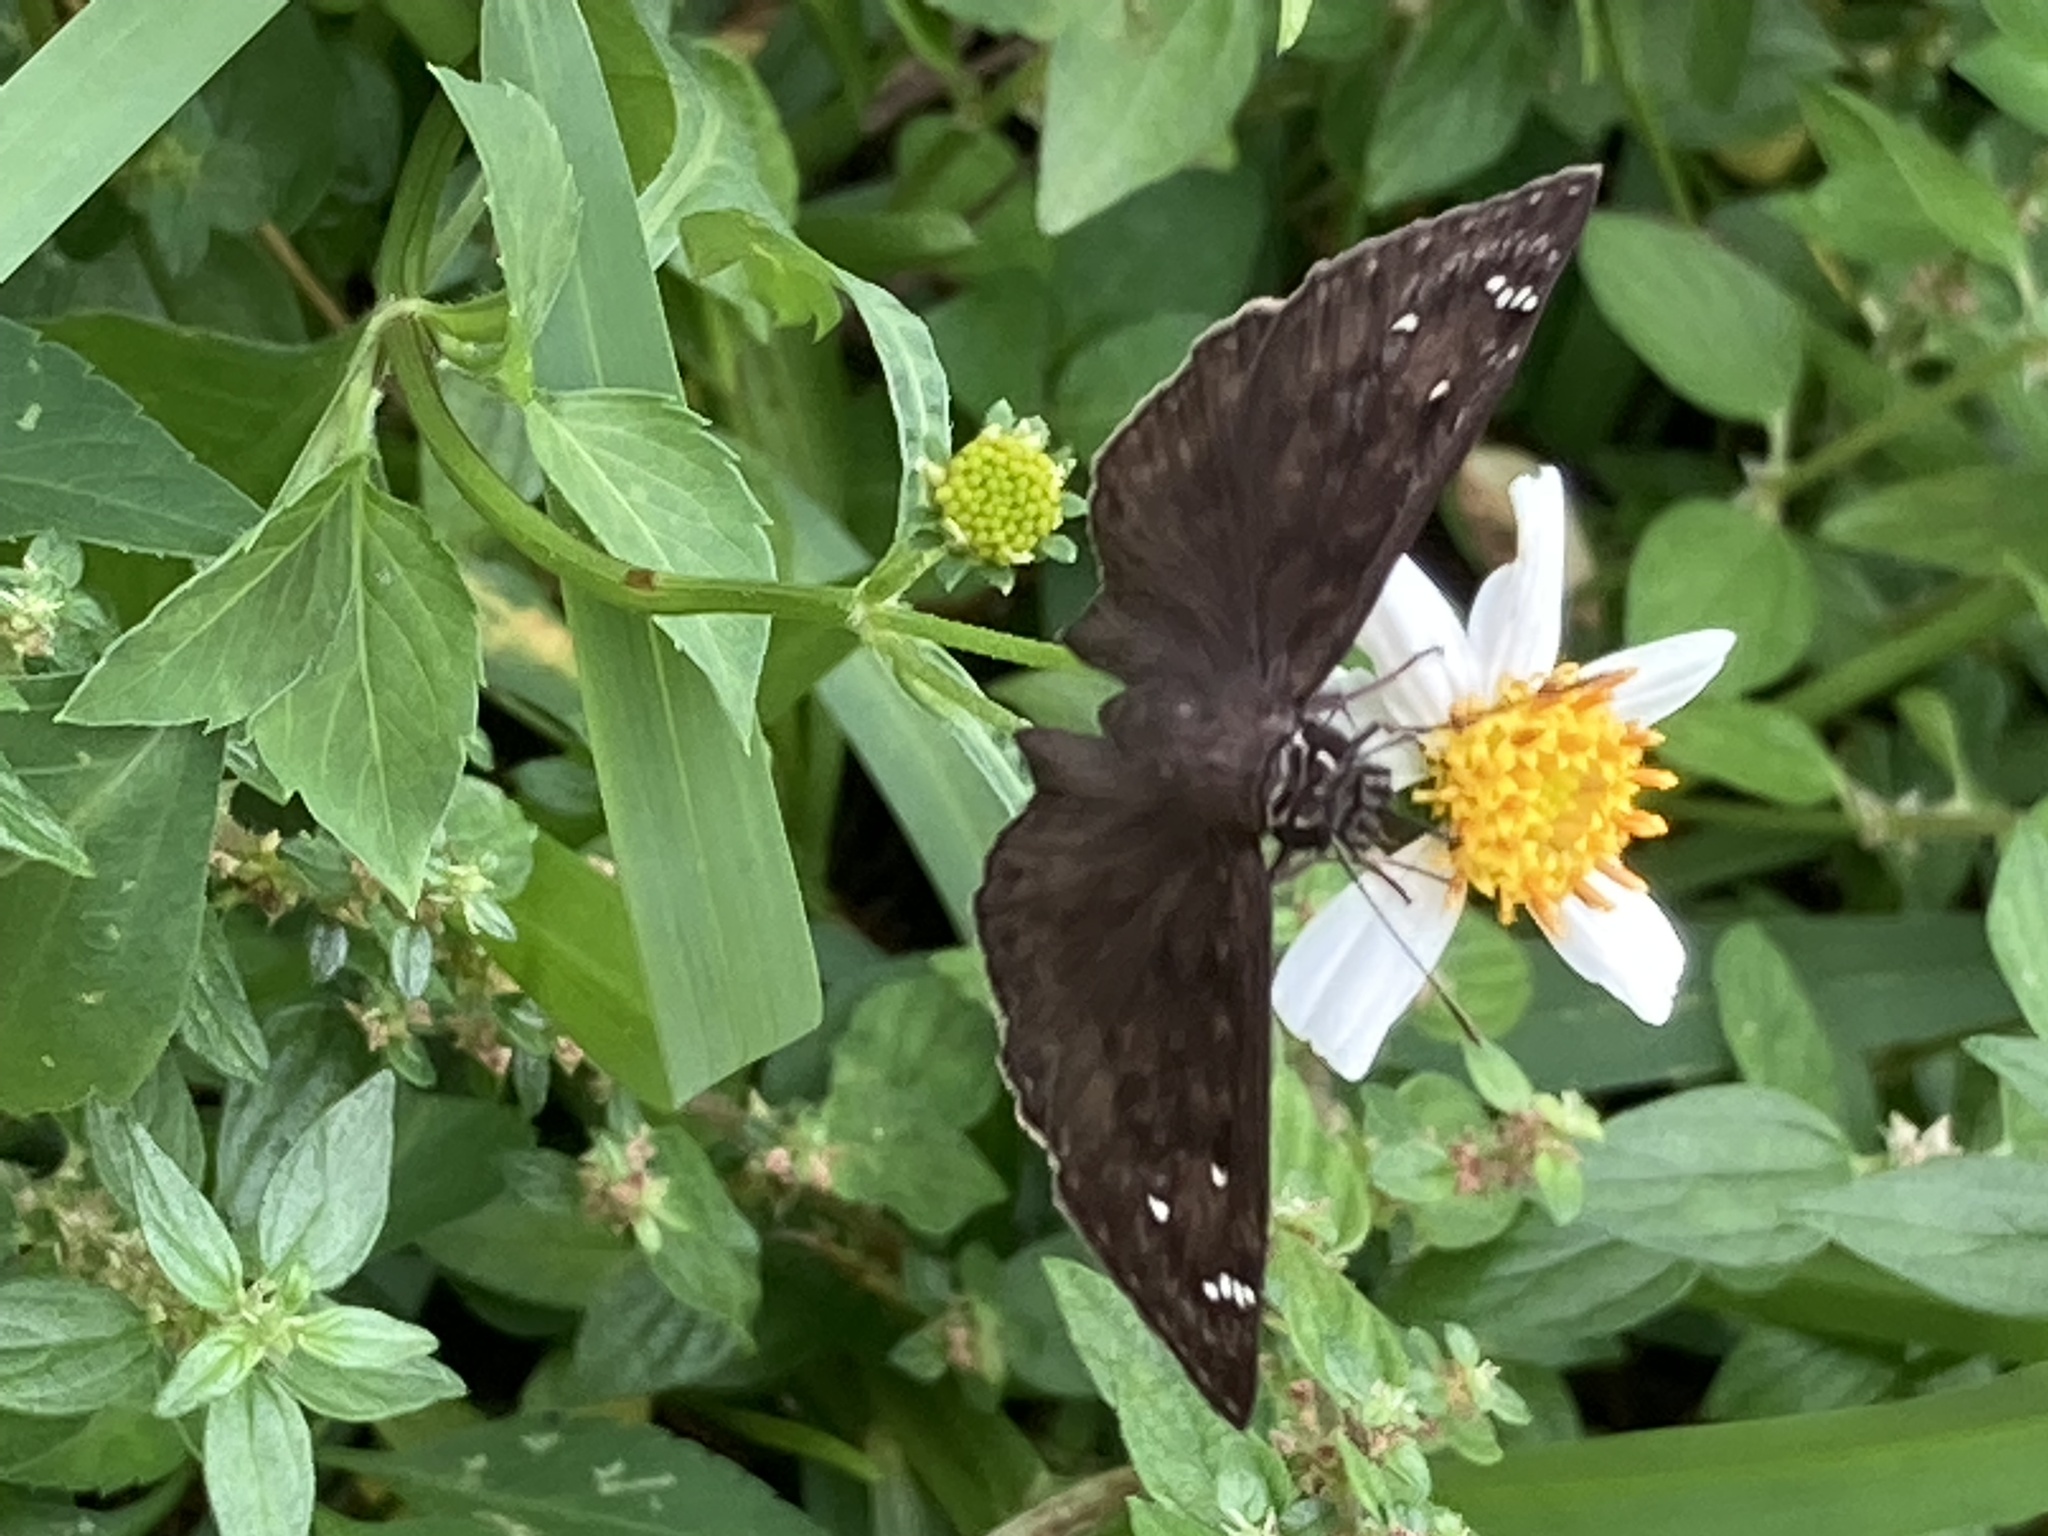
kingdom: Animalia
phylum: Arthropoda
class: Insecta
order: Lepidoptera
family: Hesperiidae
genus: Erynnis
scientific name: Erynnis horatius
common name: Horace's duskywing
